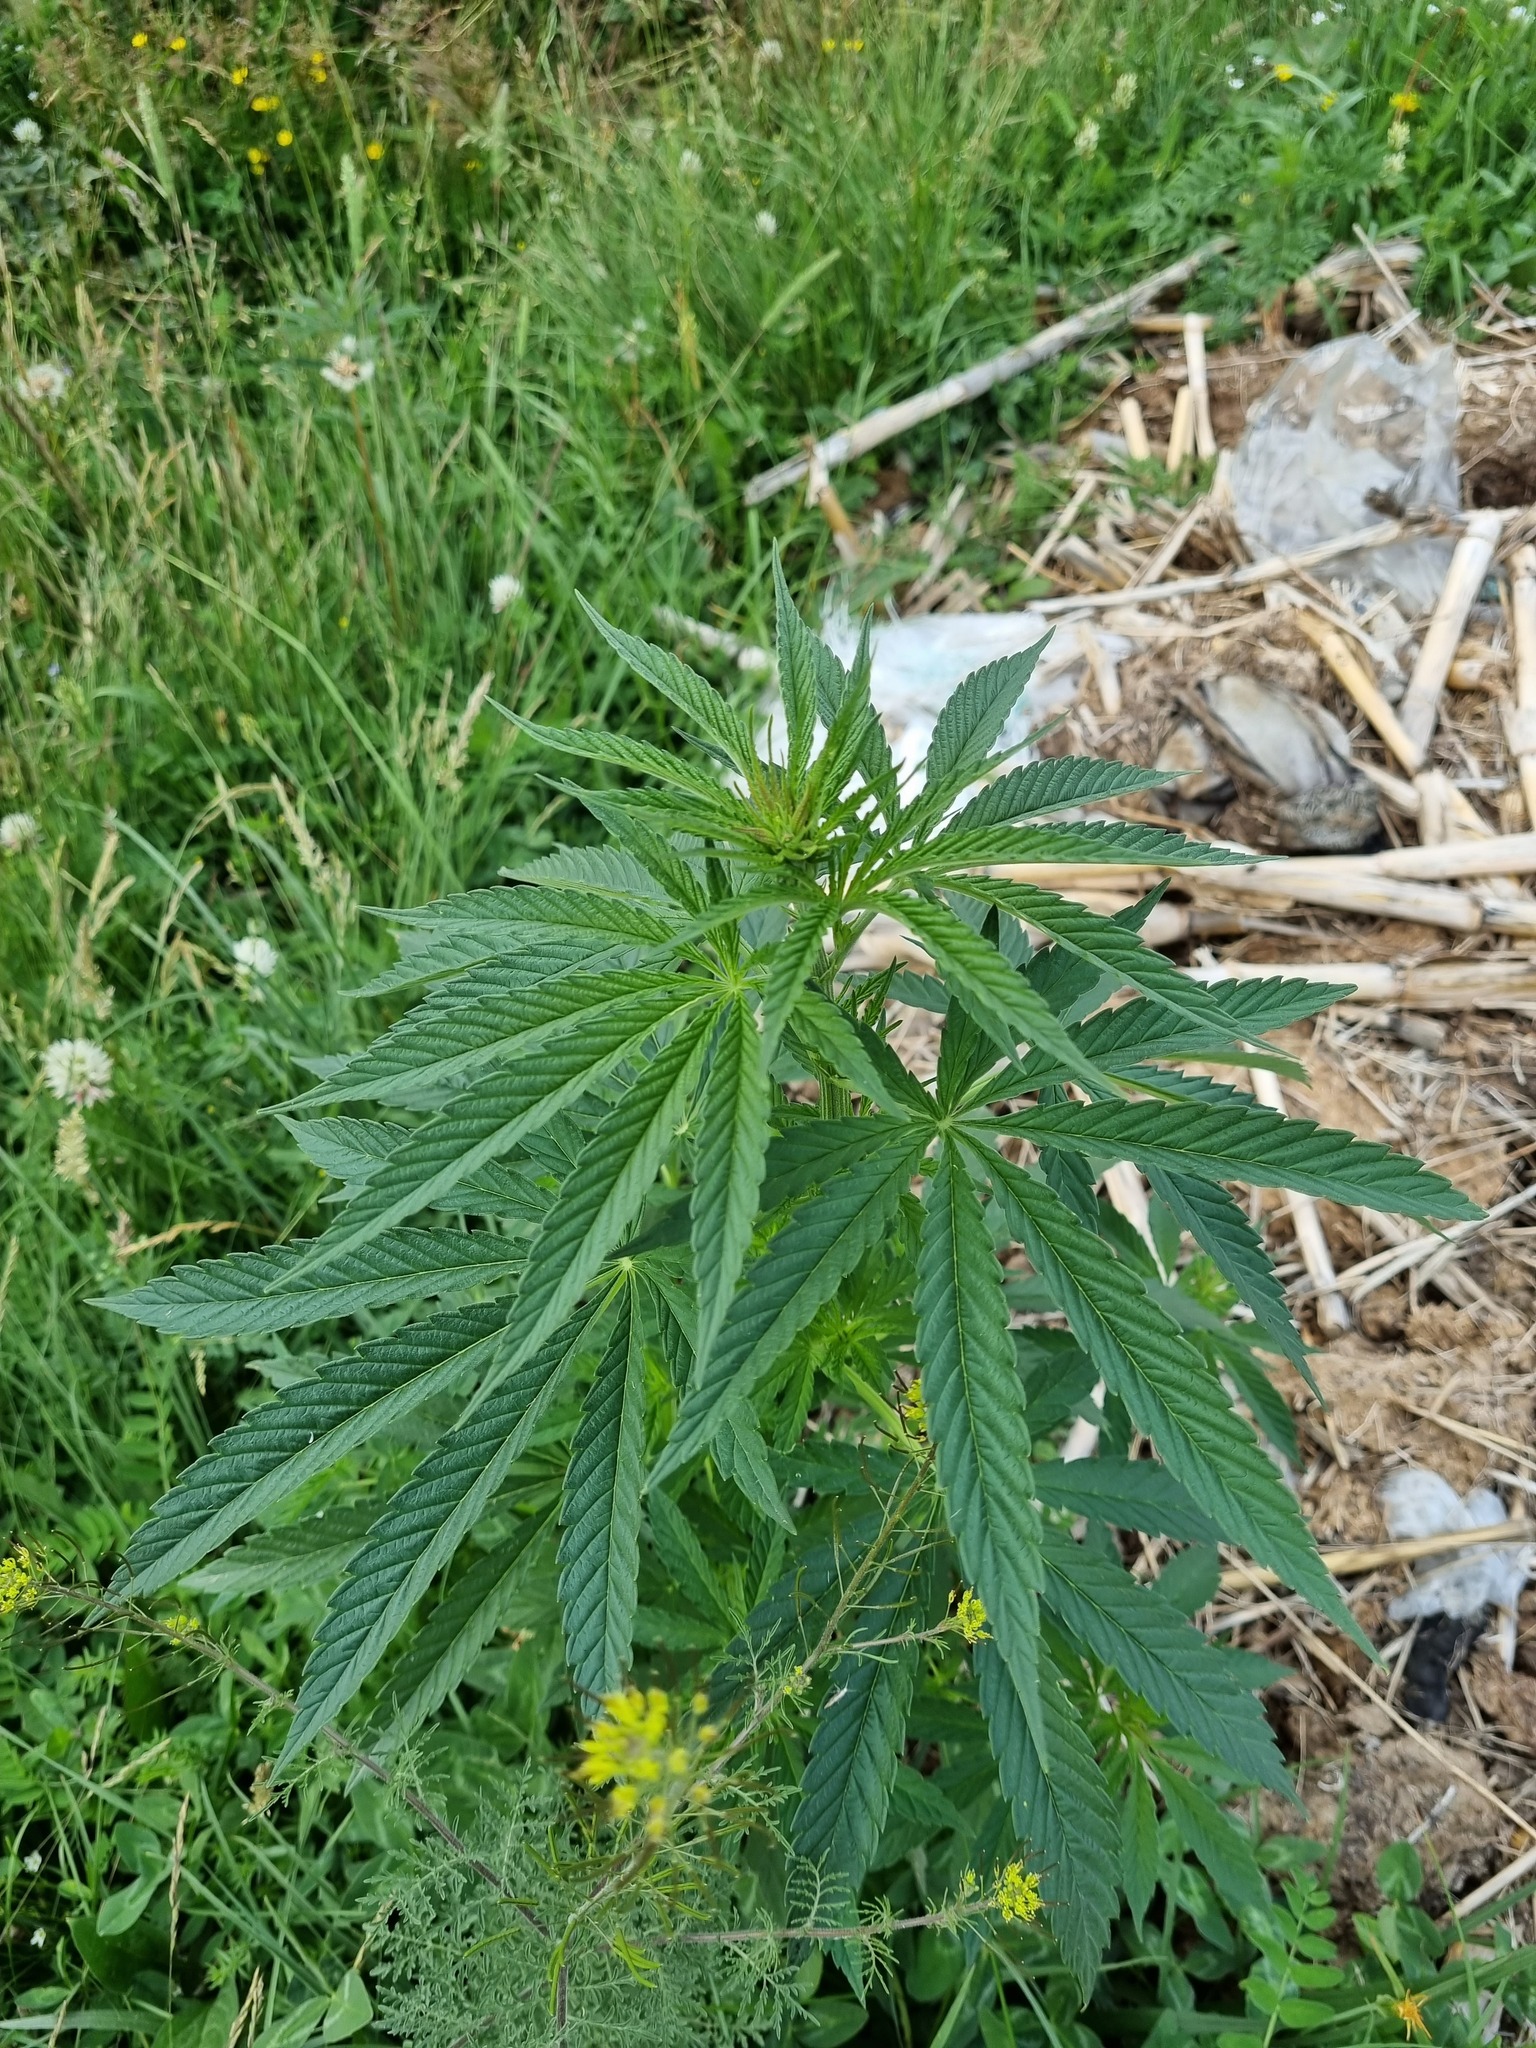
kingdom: Plantae
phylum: Tracheophyta
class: Magnoliopsida
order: Rosales
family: Cannabaceae
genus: Cannabis
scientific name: Cannabis sativa
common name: Hemp
